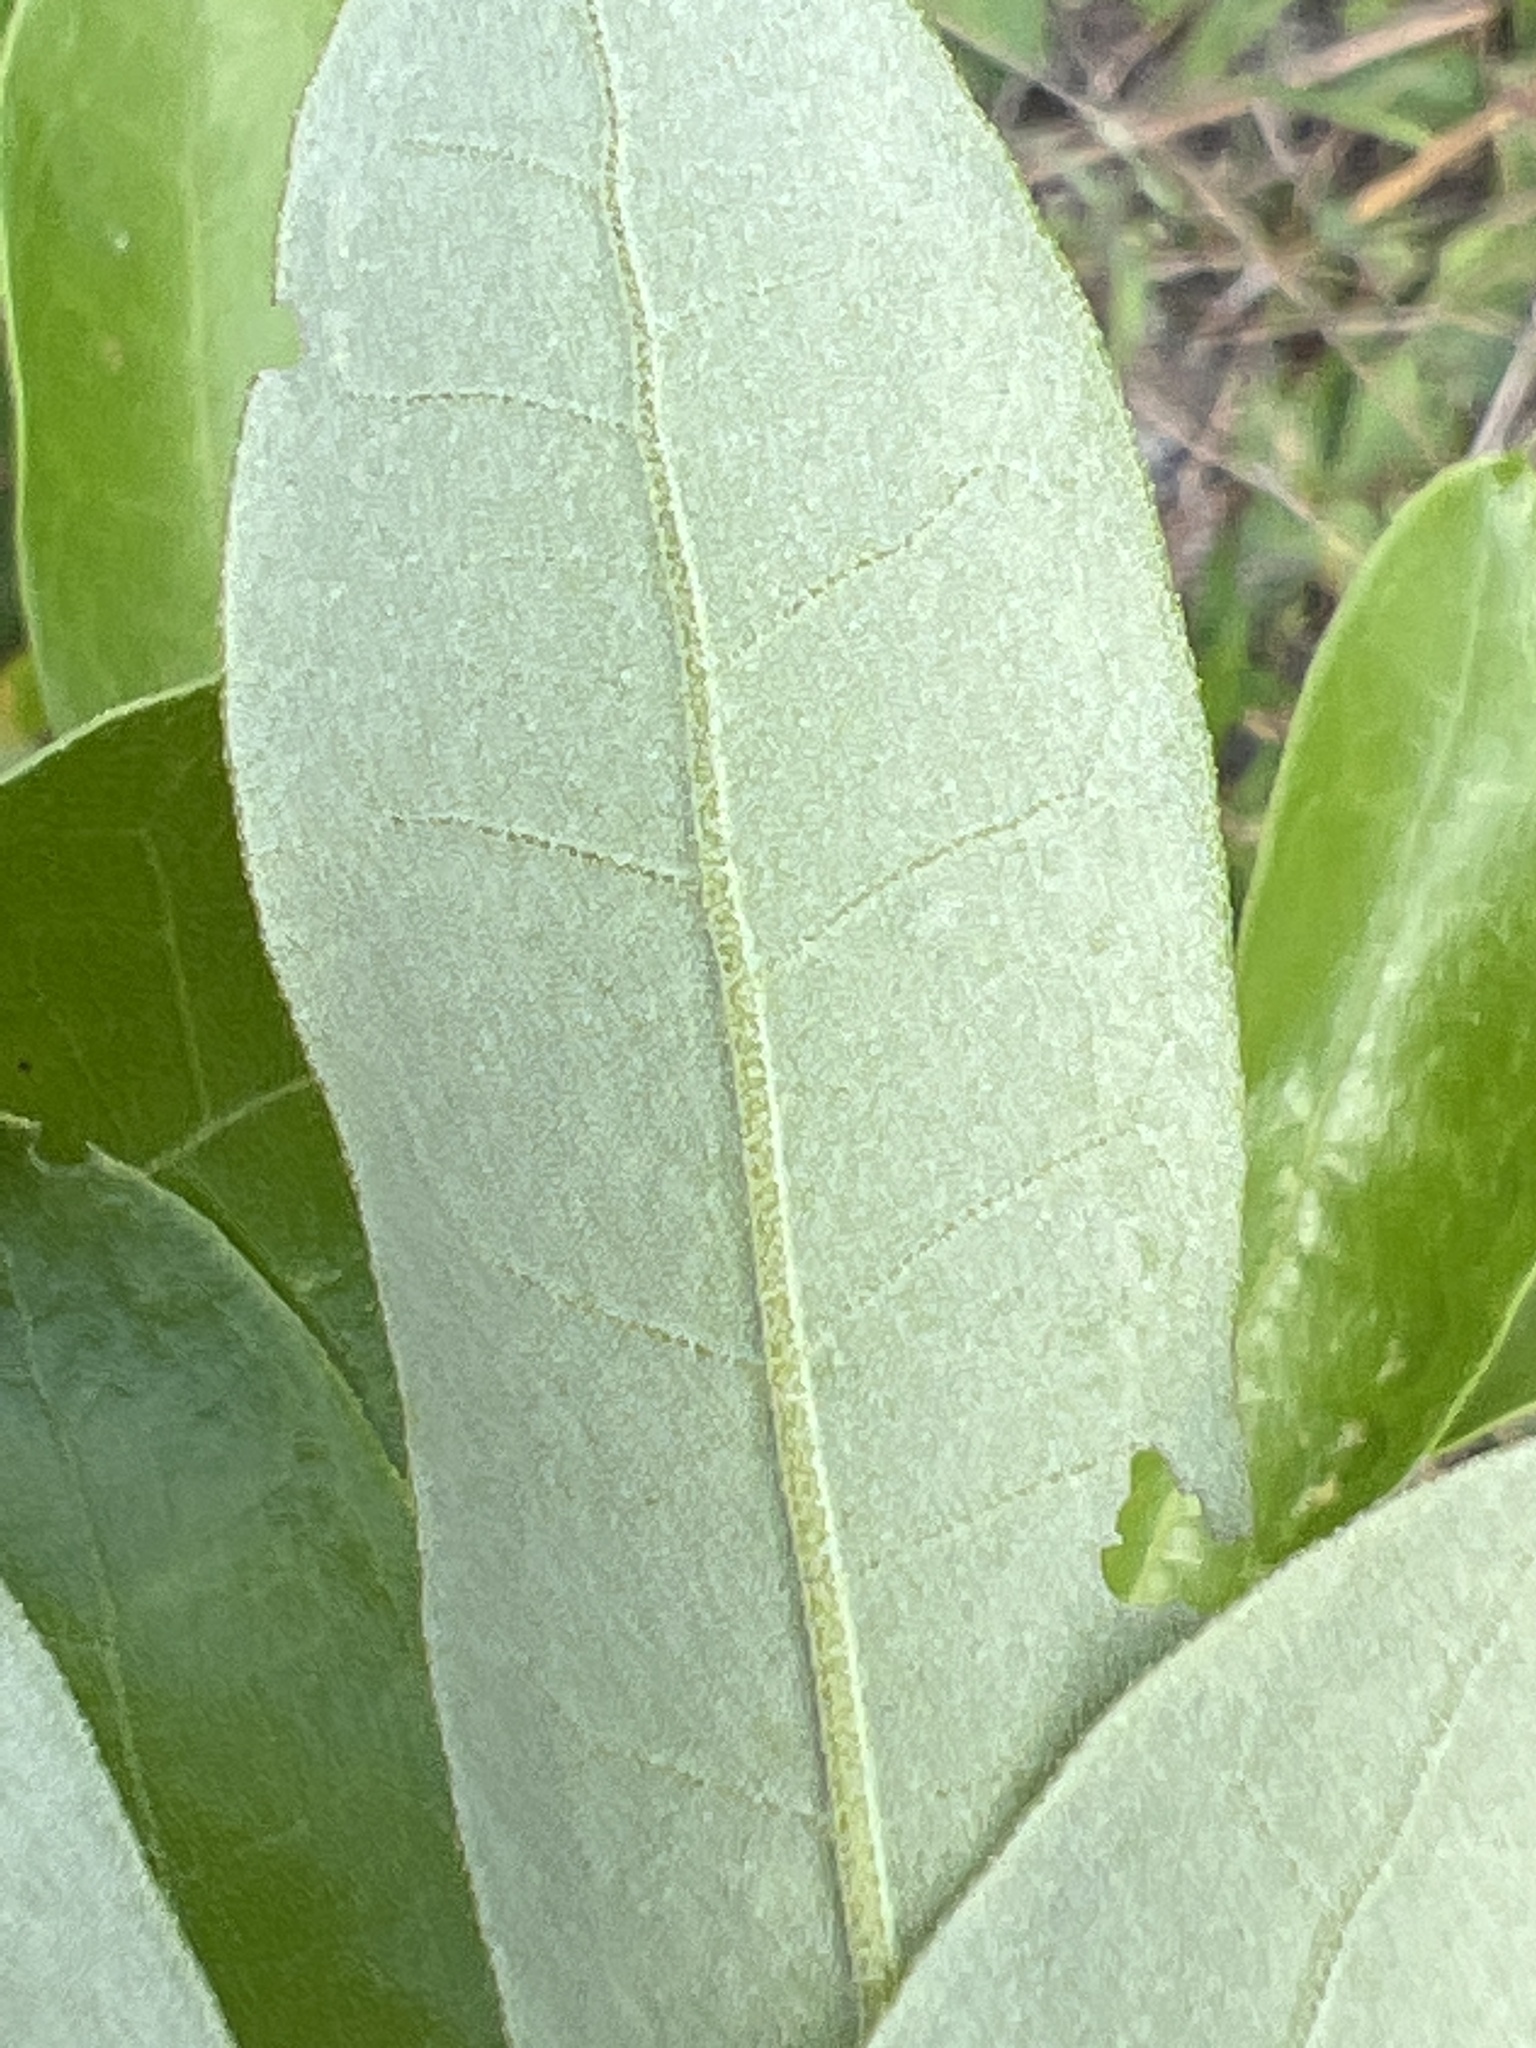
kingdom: Plantae
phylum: Tracheophyta
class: Magnoliopsida
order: Fagales
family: Fagaceae
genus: Quercus
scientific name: Quercus pumila
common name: Runner oak
